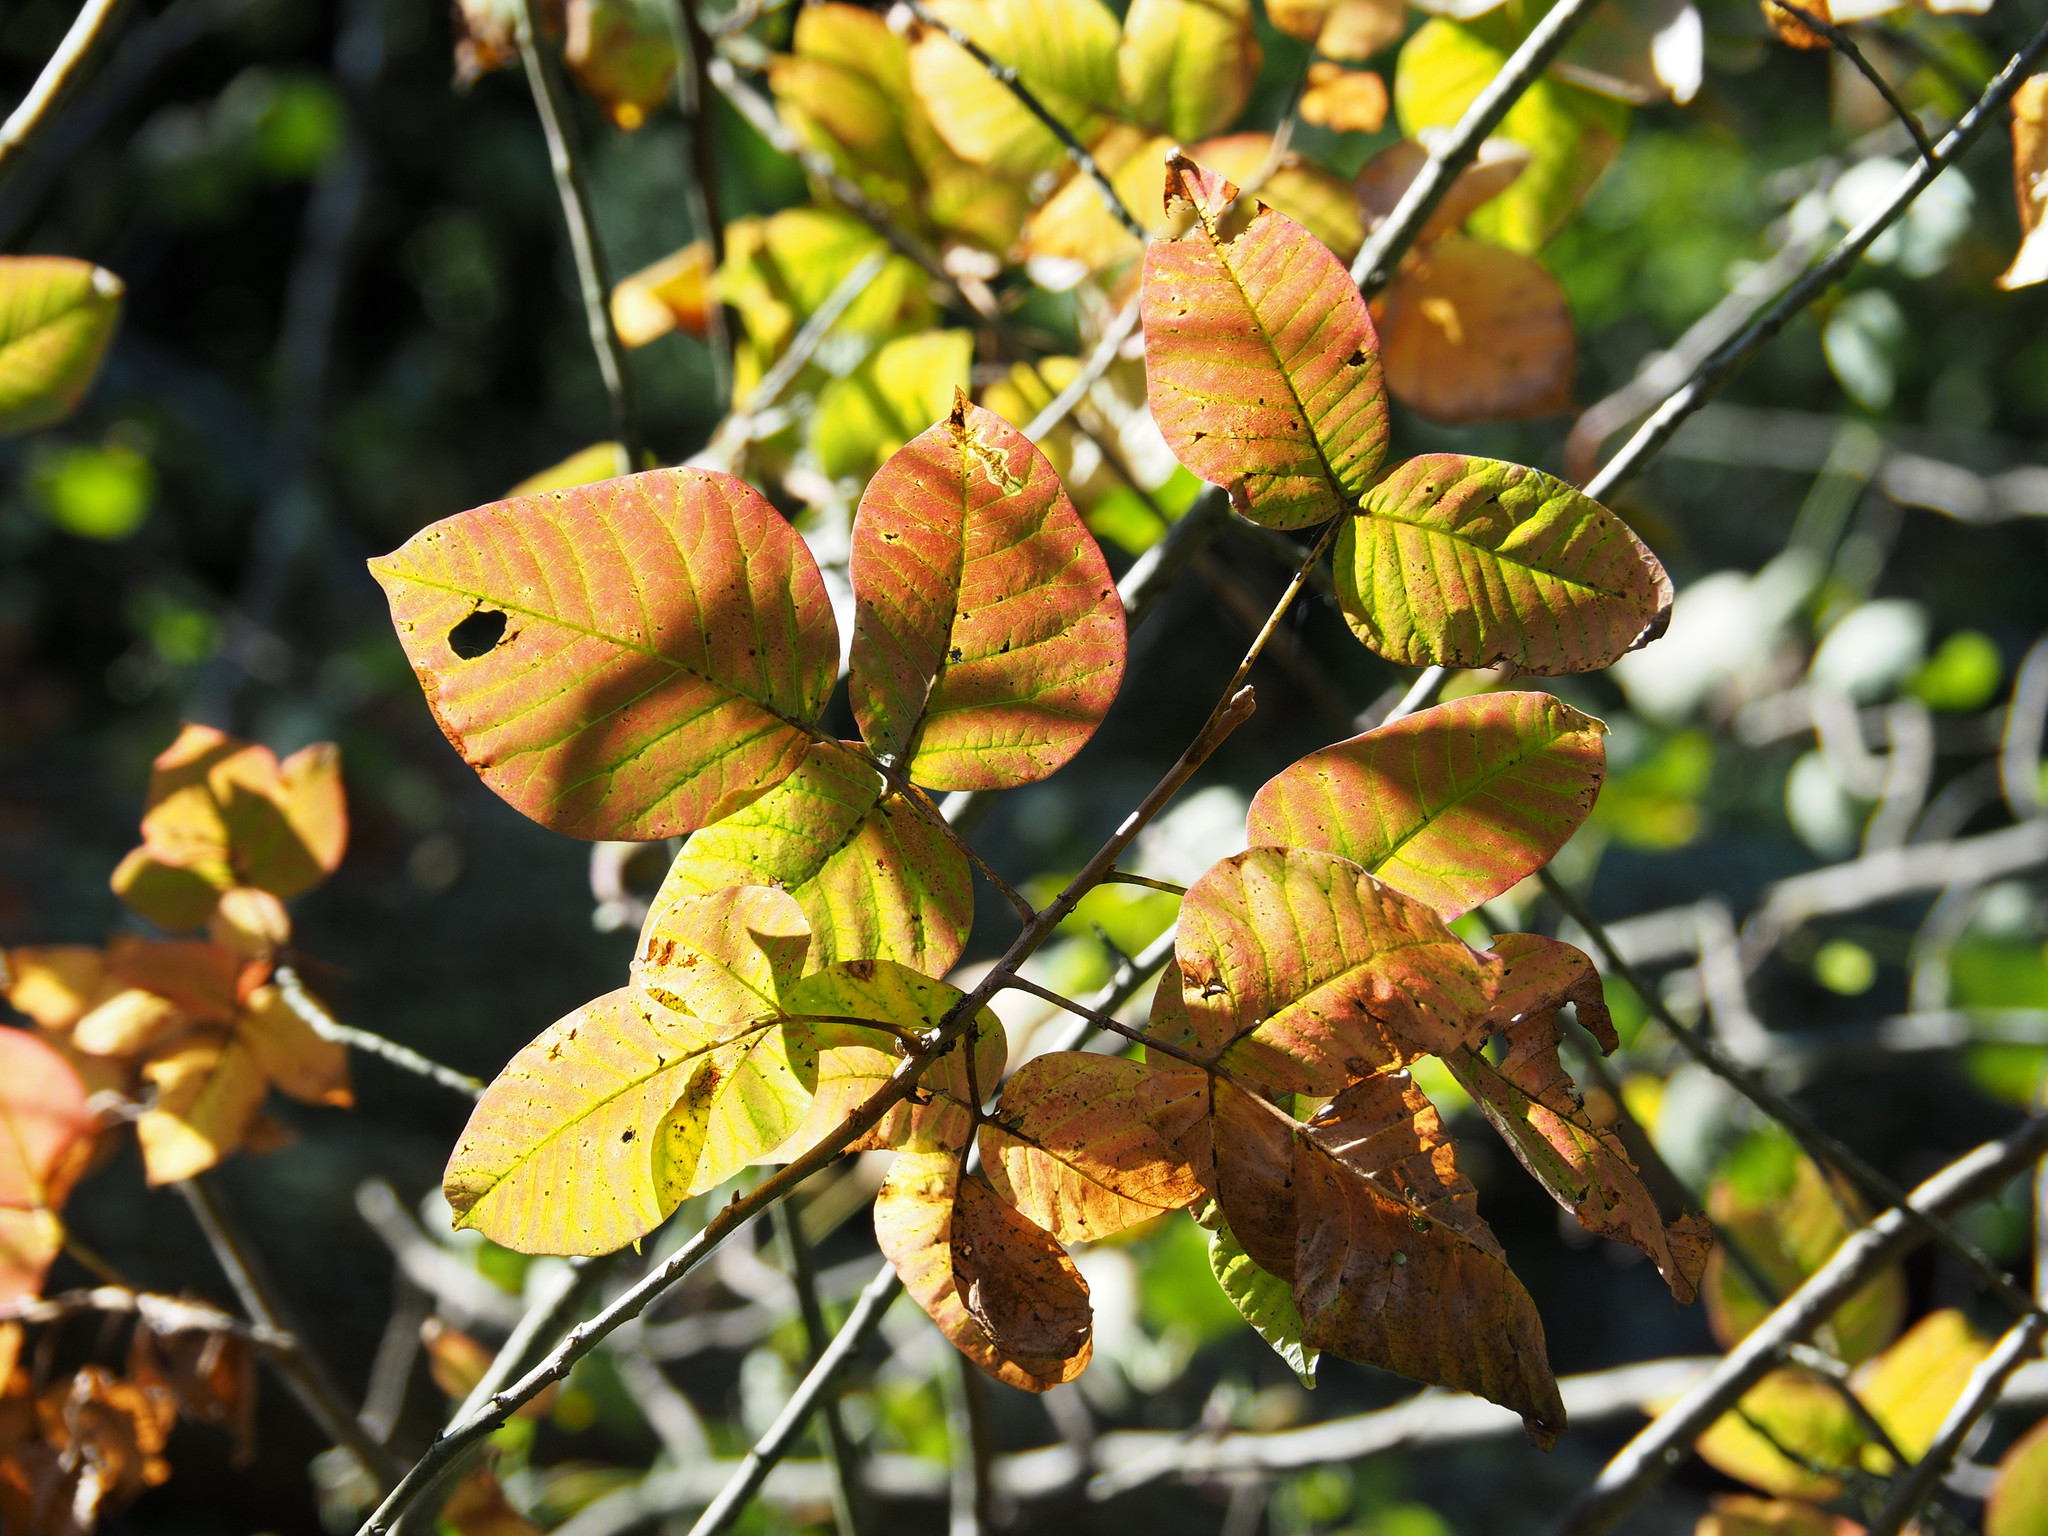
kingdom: Plantae
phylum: Tracheophyta
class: Magnoliopsida
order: Sapindales
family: Anacardiaceae
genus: Toxicodendron
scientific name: Toxicodendron radicans
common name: Poison ivy
